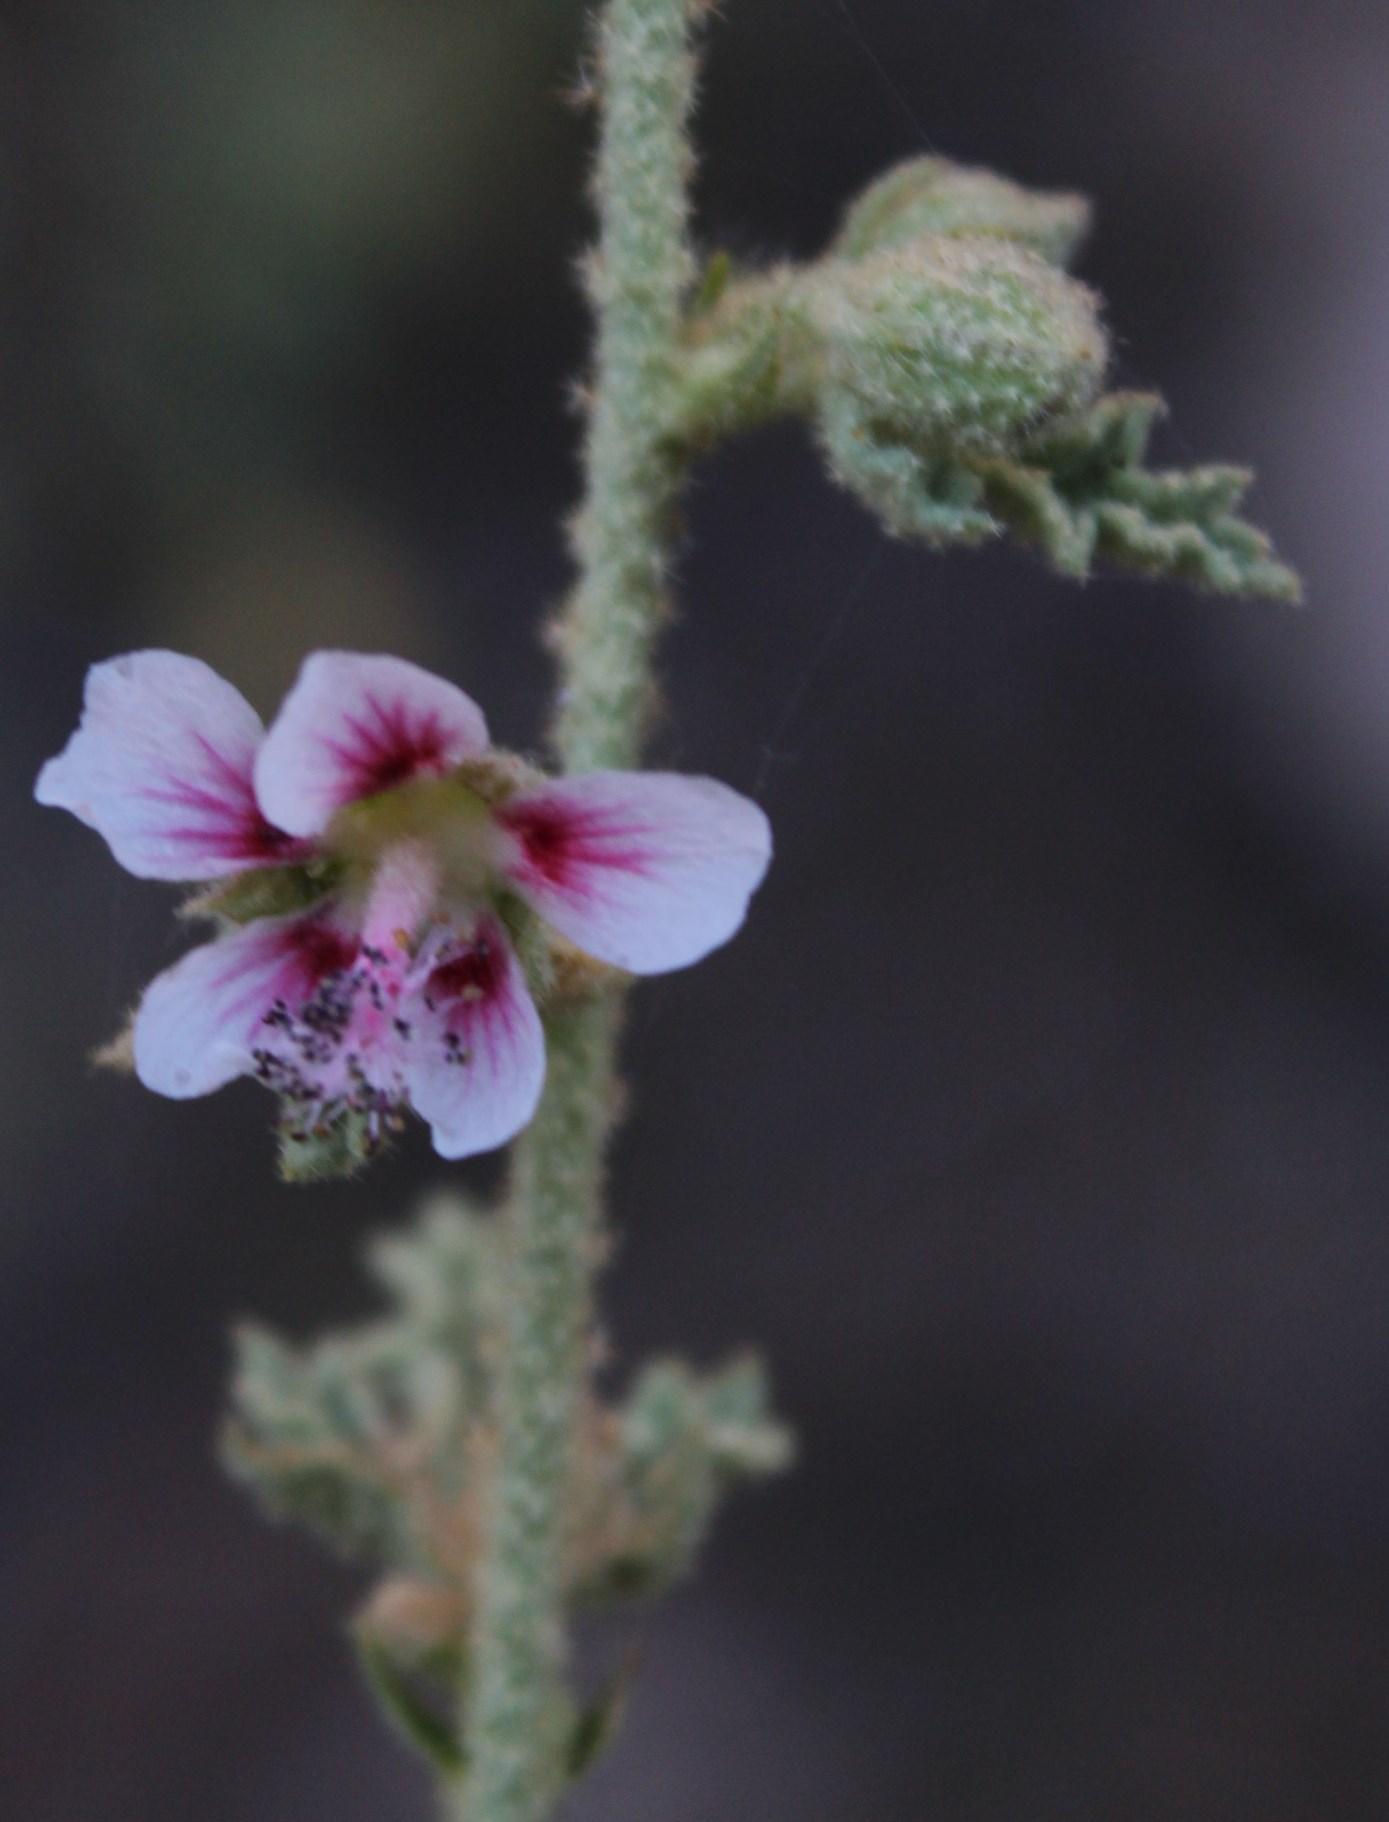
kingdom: Plantae
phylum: Tracheophyta
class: Magnoliopsida
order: Malvales
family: Malvaceae
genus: Anisodontea
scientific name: Anisodontea scabrosa
